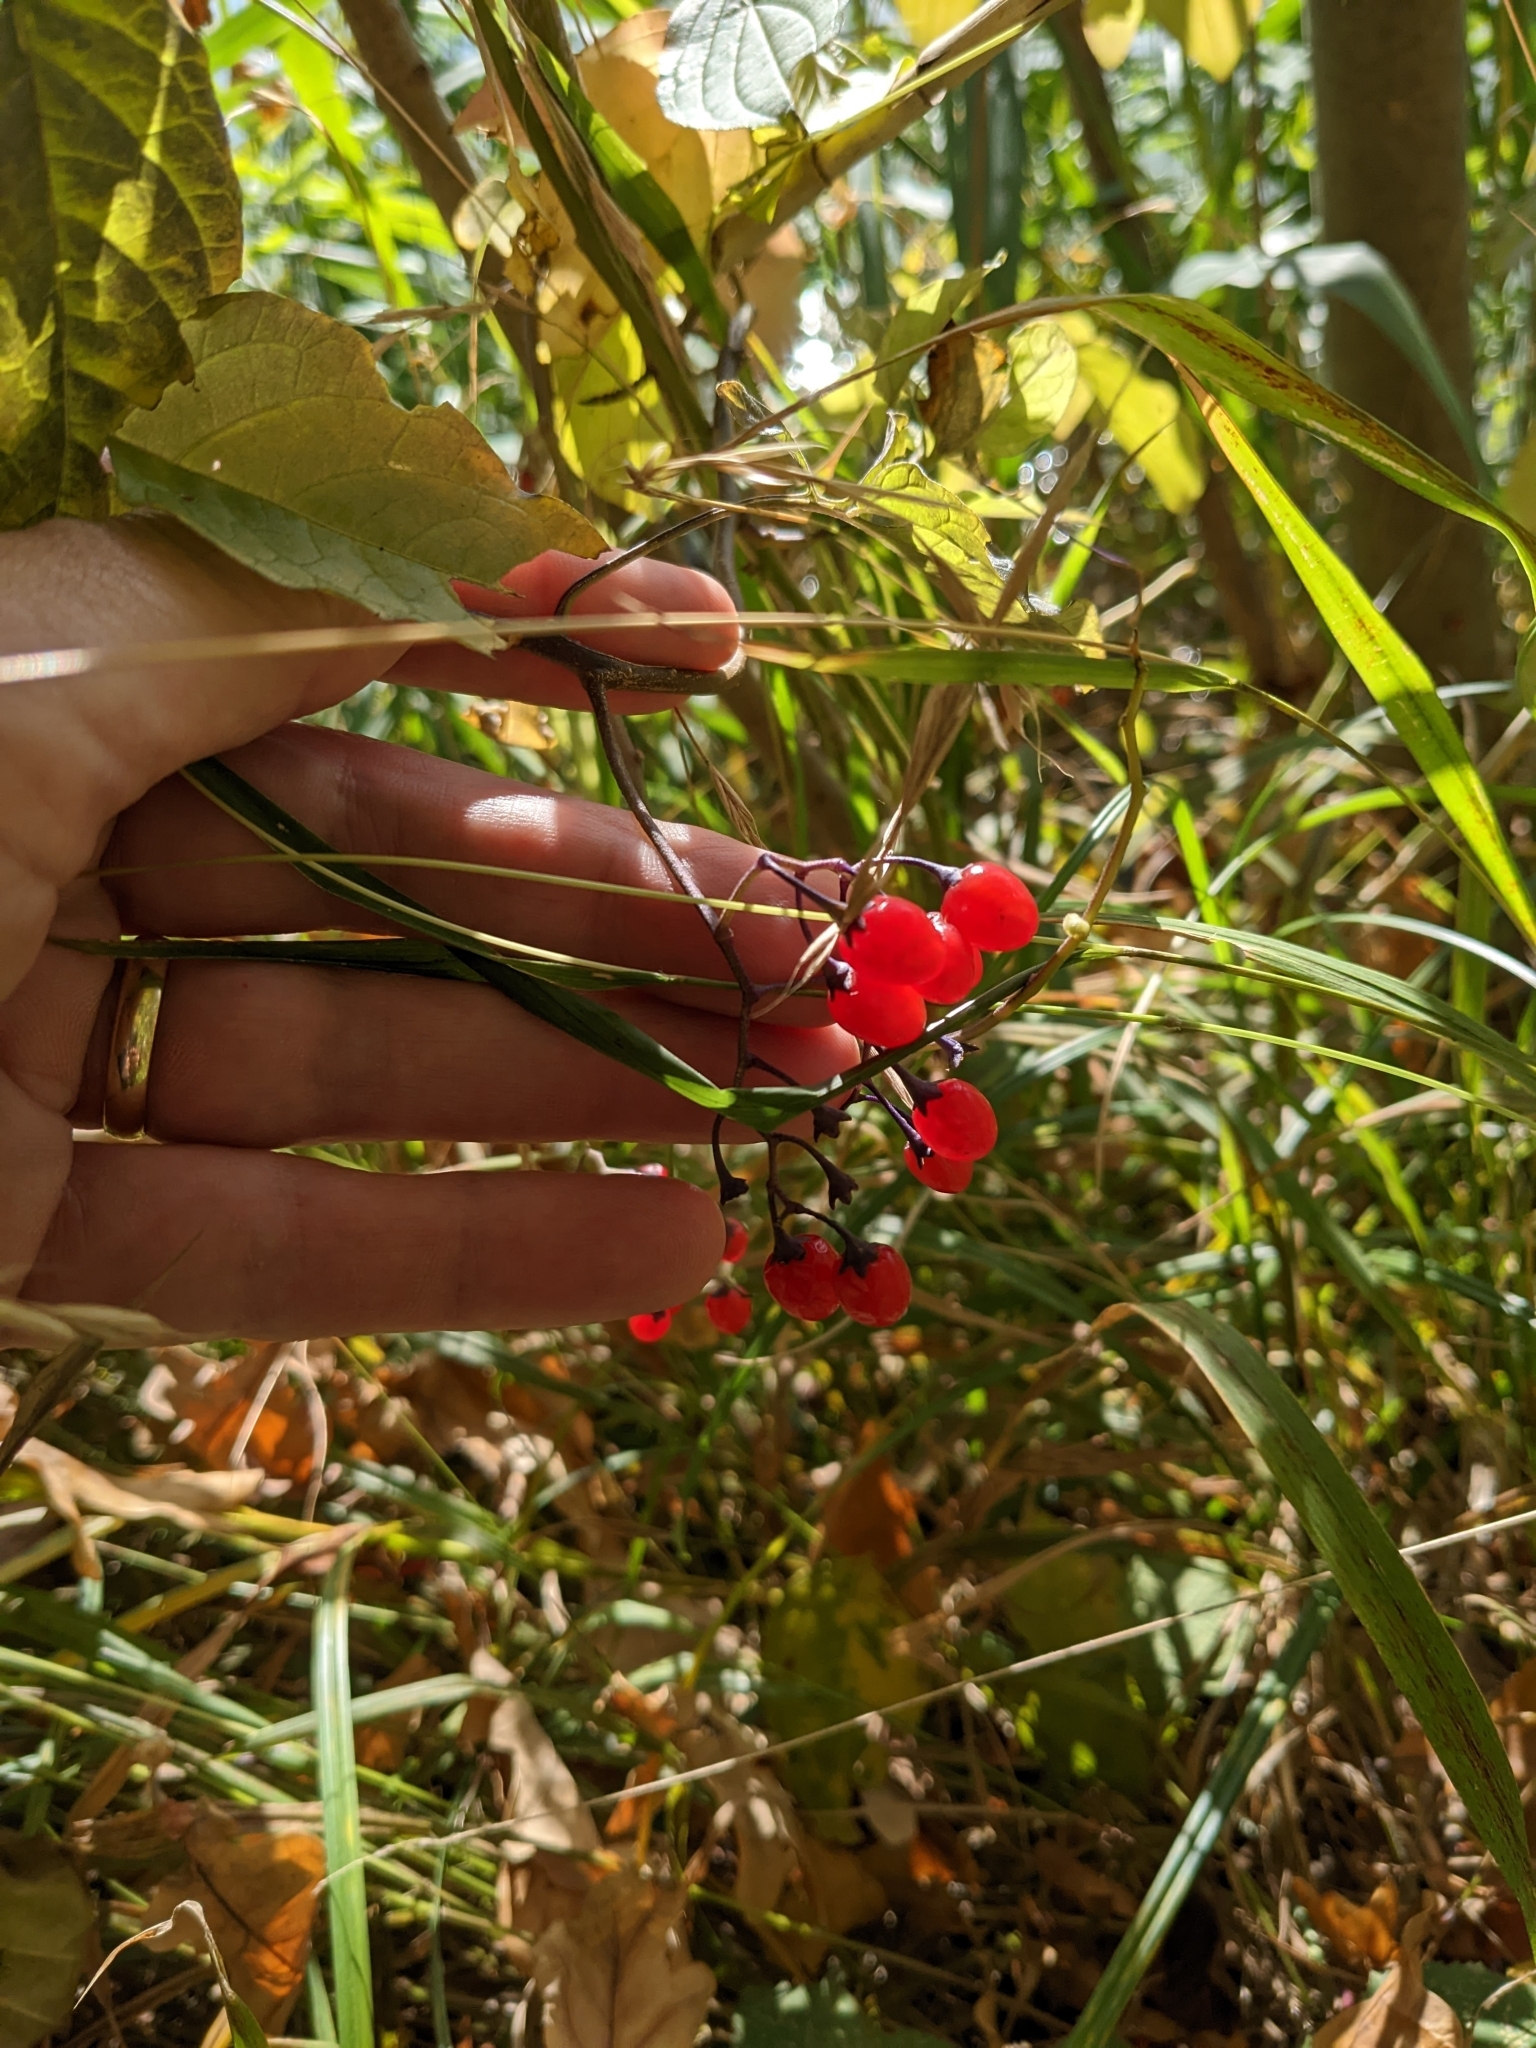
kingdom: Plantae
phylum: Tracheophyta
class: Magnoliopsida
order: Solanales
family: Solanaceae
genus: Solanum
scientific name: Solanum dulcamara
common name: Climbing nightshade
